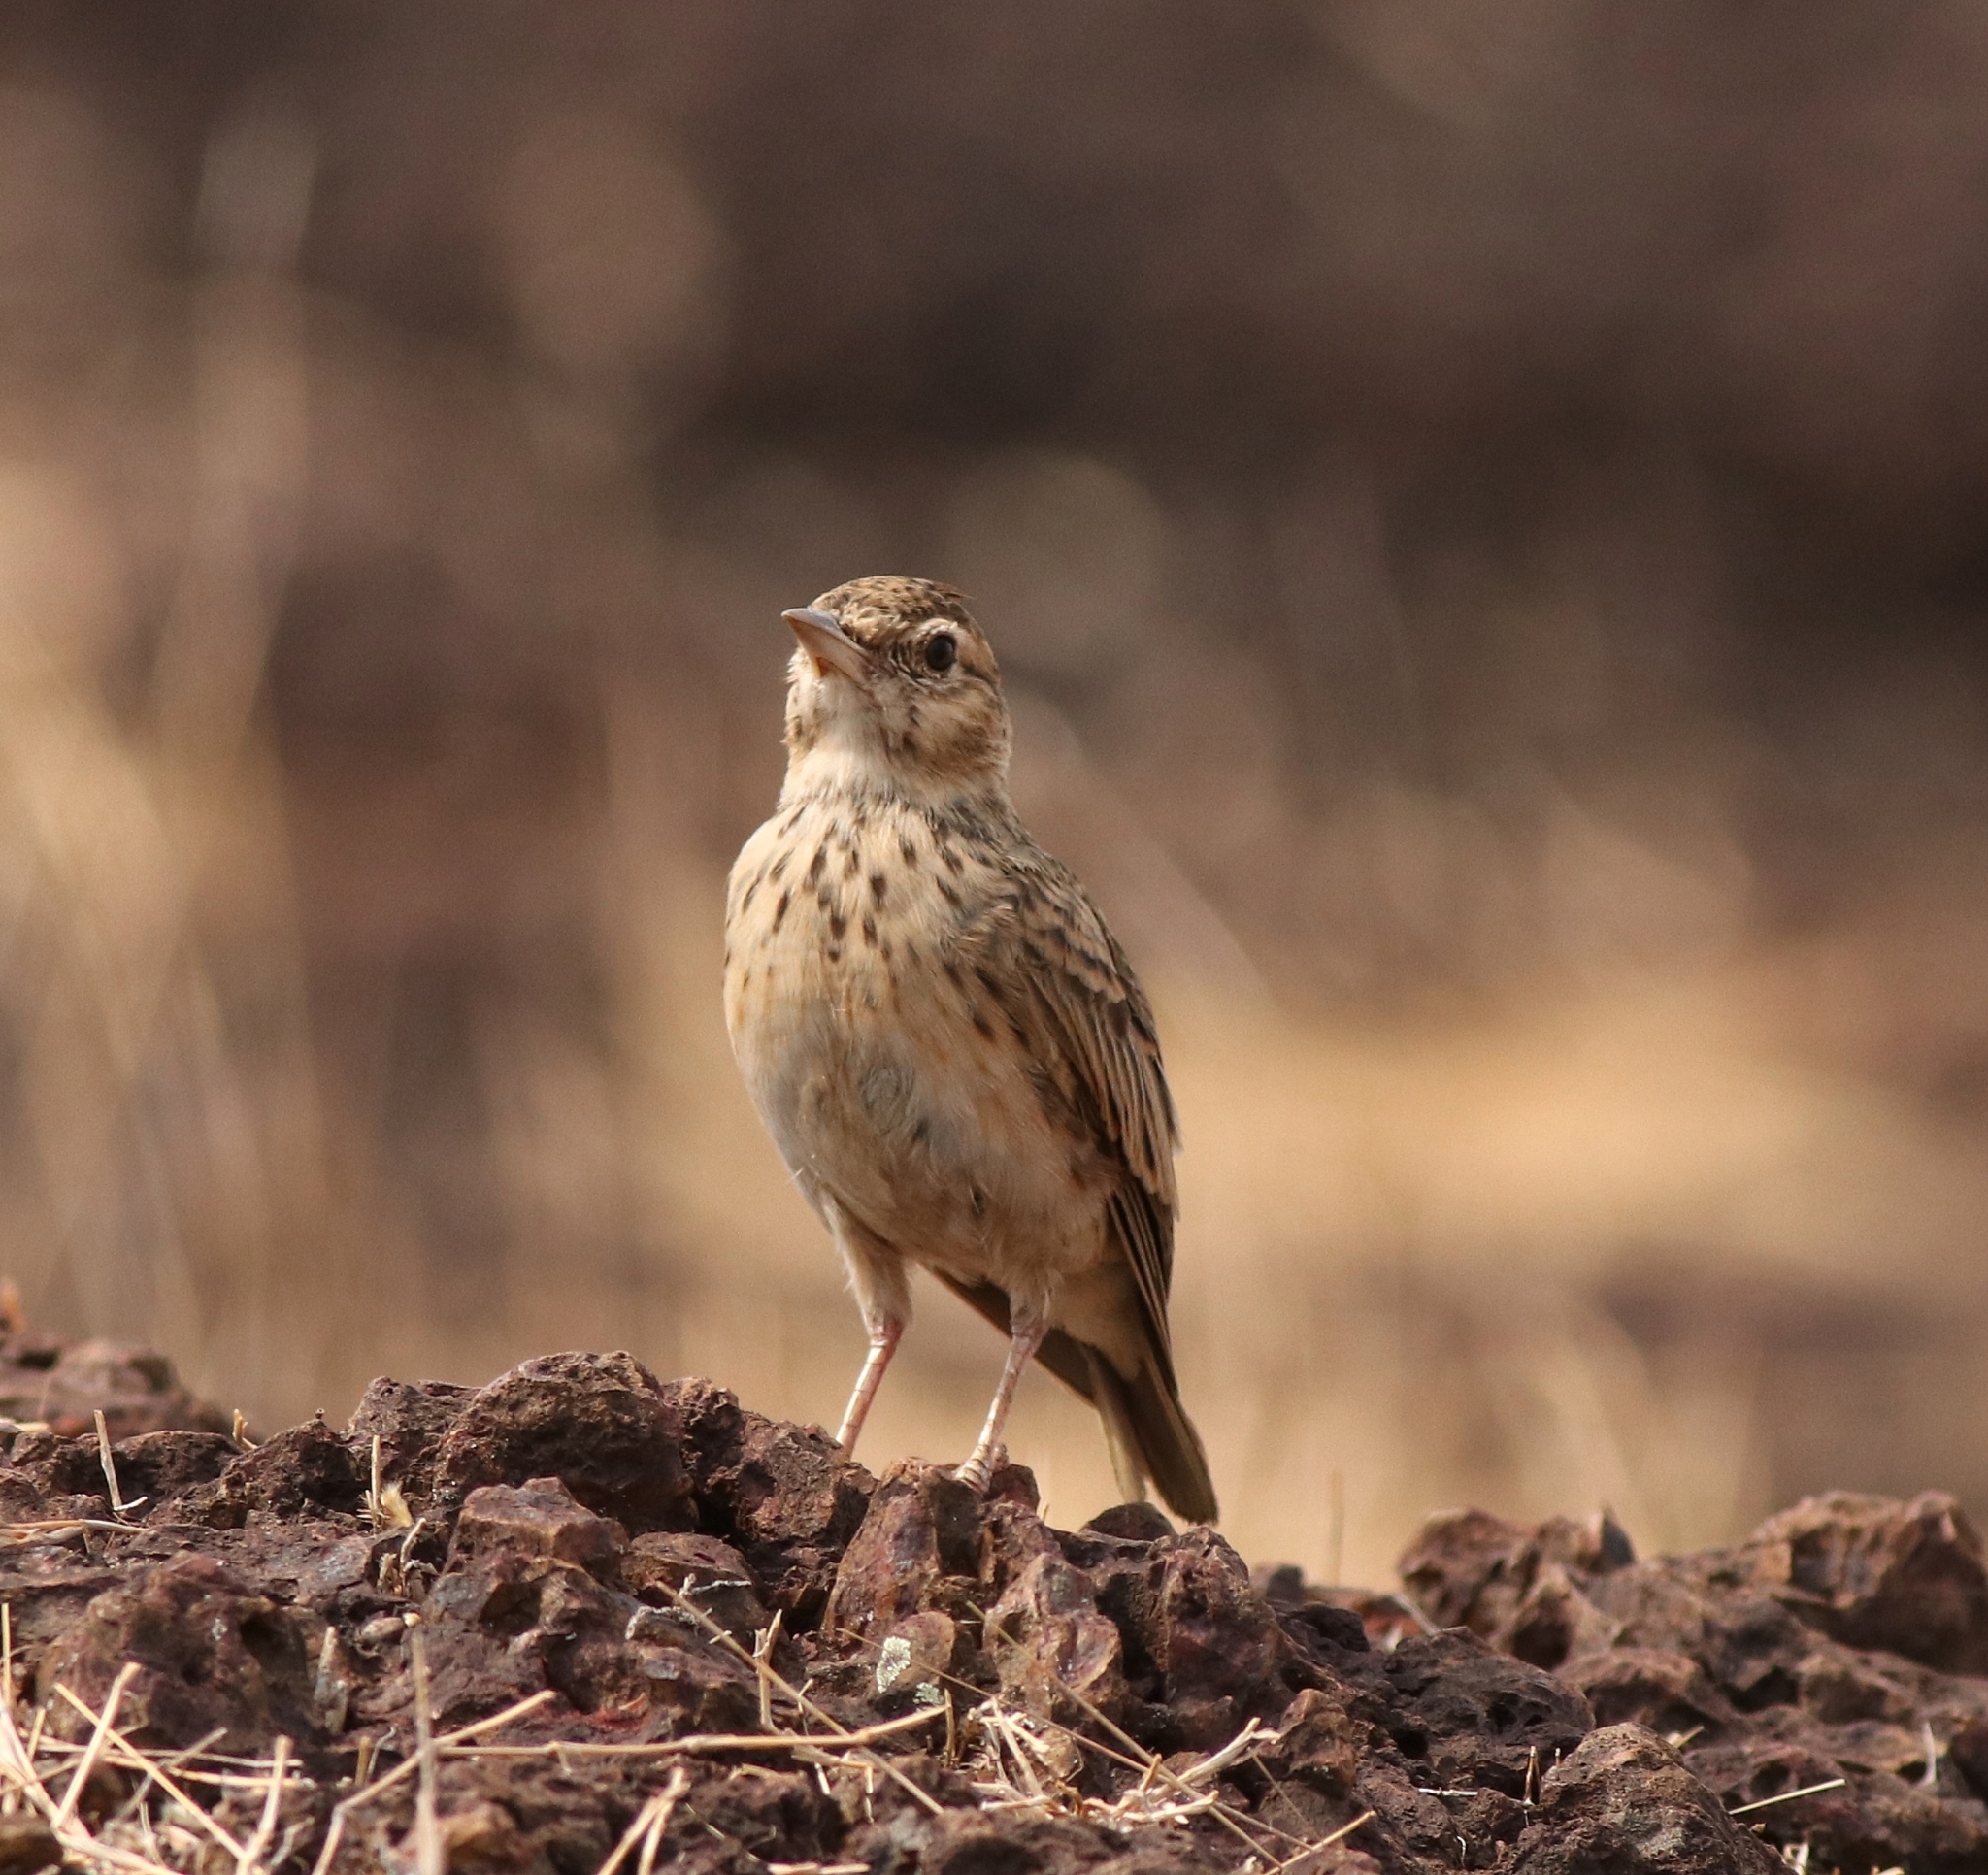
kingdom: Animalia
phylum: Chordata
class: Aves
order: Passeriformes
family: Alaudidae
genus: Galerida
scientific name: Galerida malabarica
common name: Malabar lark
